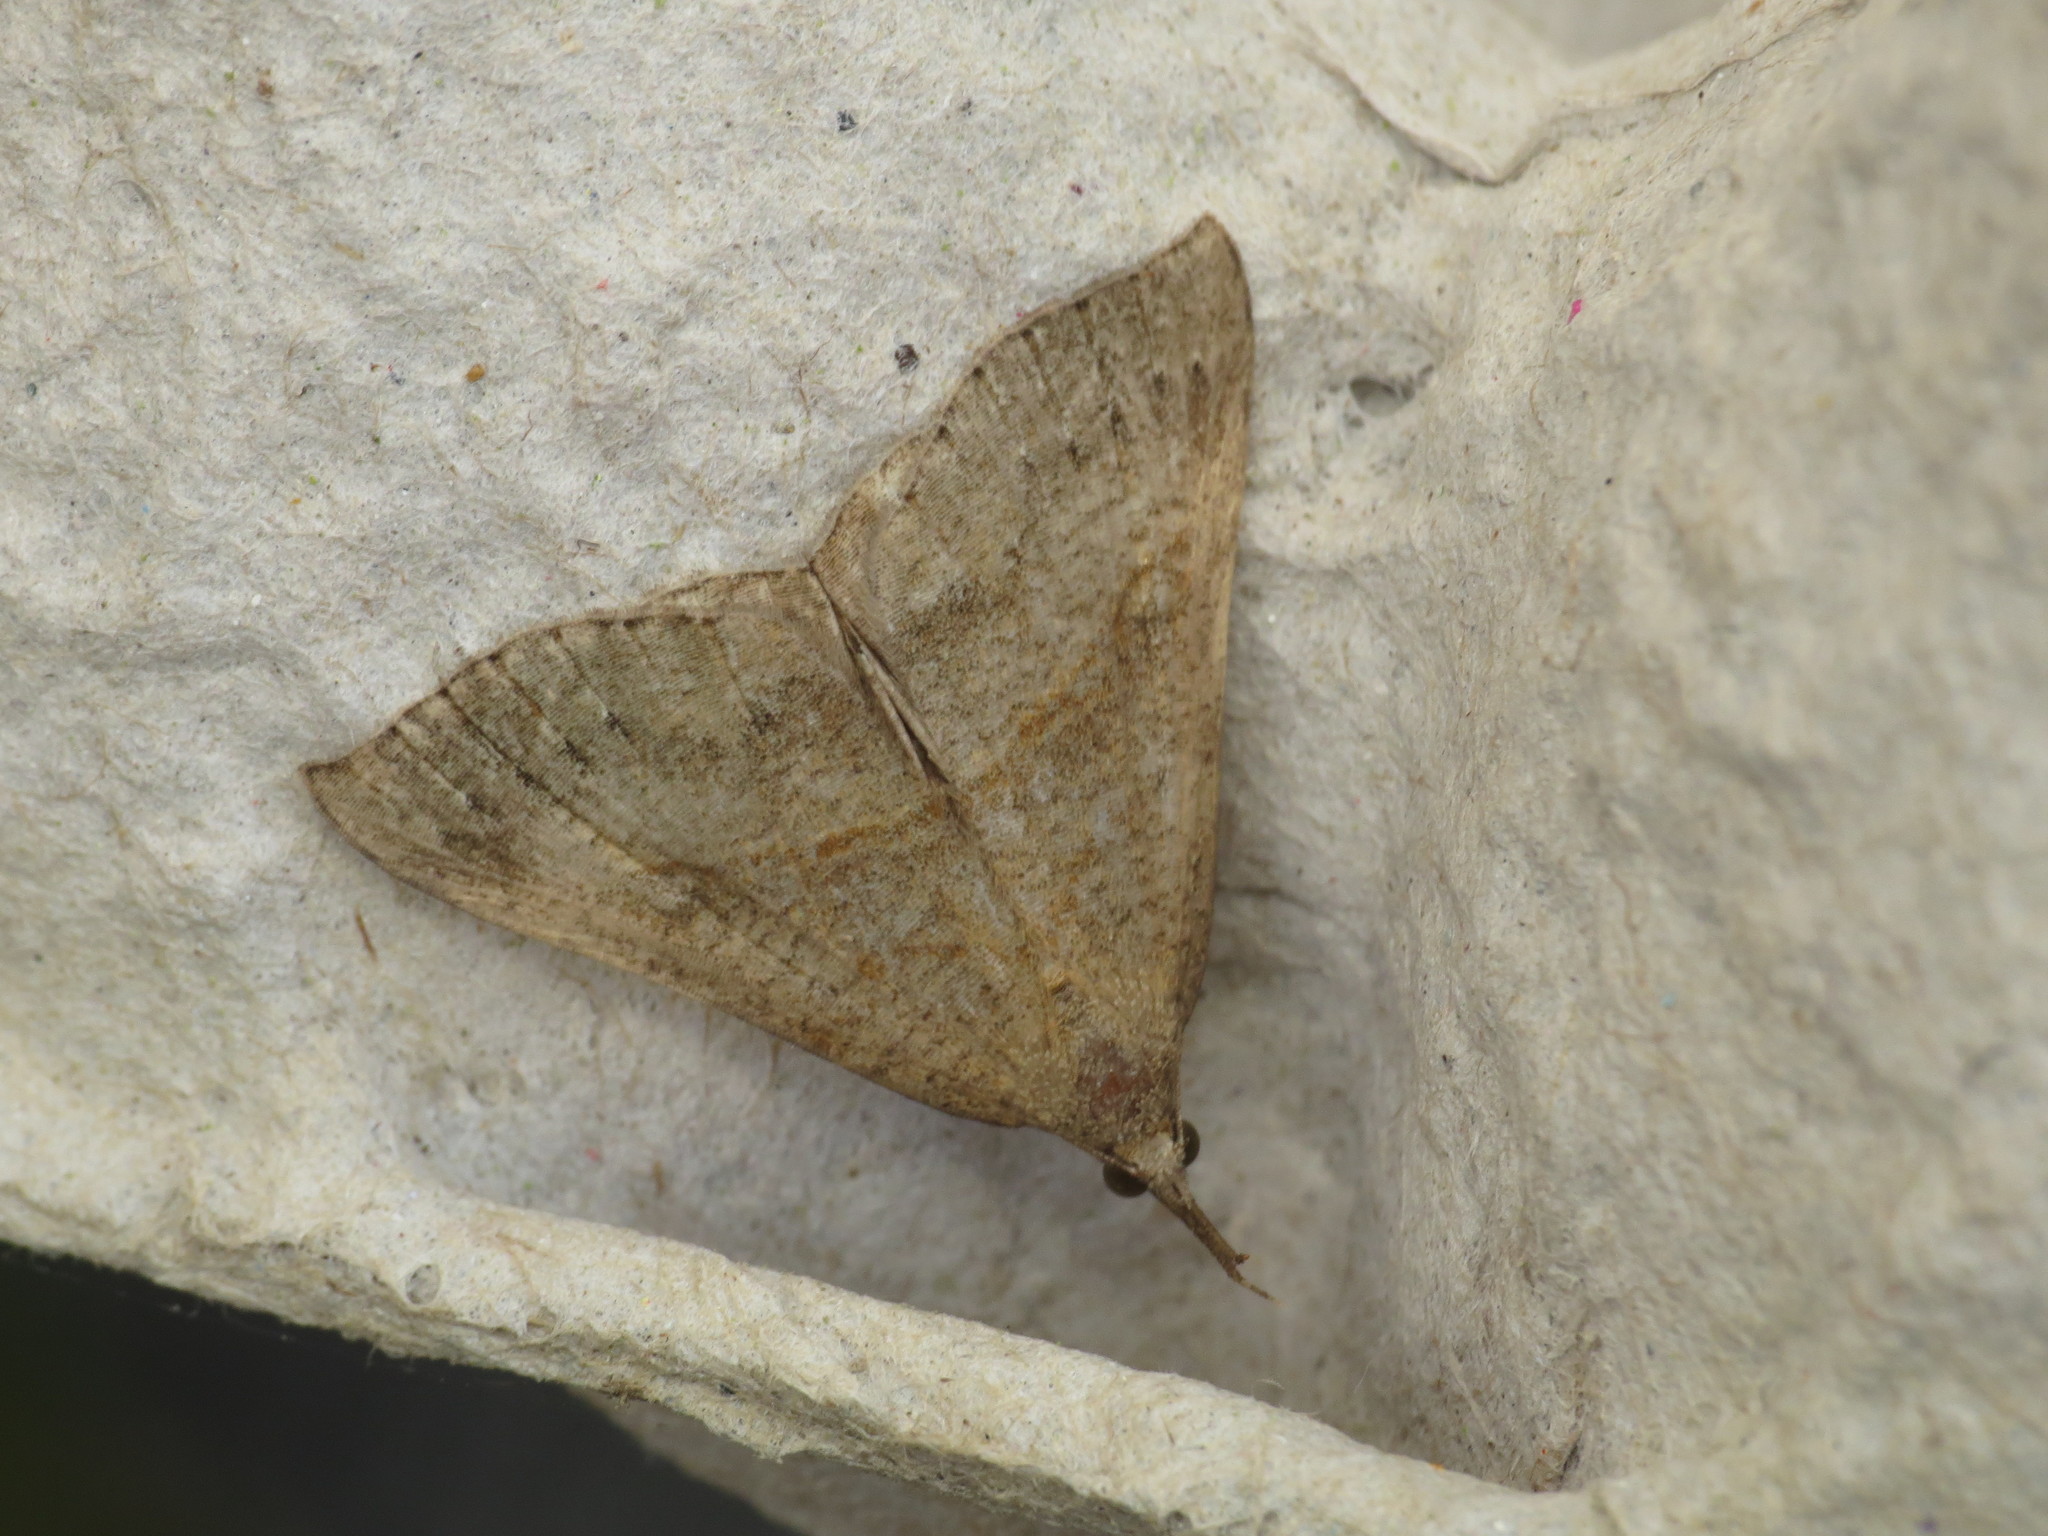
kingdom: Animalia
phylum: Arthropoda
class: Insecta
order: Lepidoptera
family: Erebidae
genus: Hypena
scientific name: Hypena proboscidalis
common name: Snout
